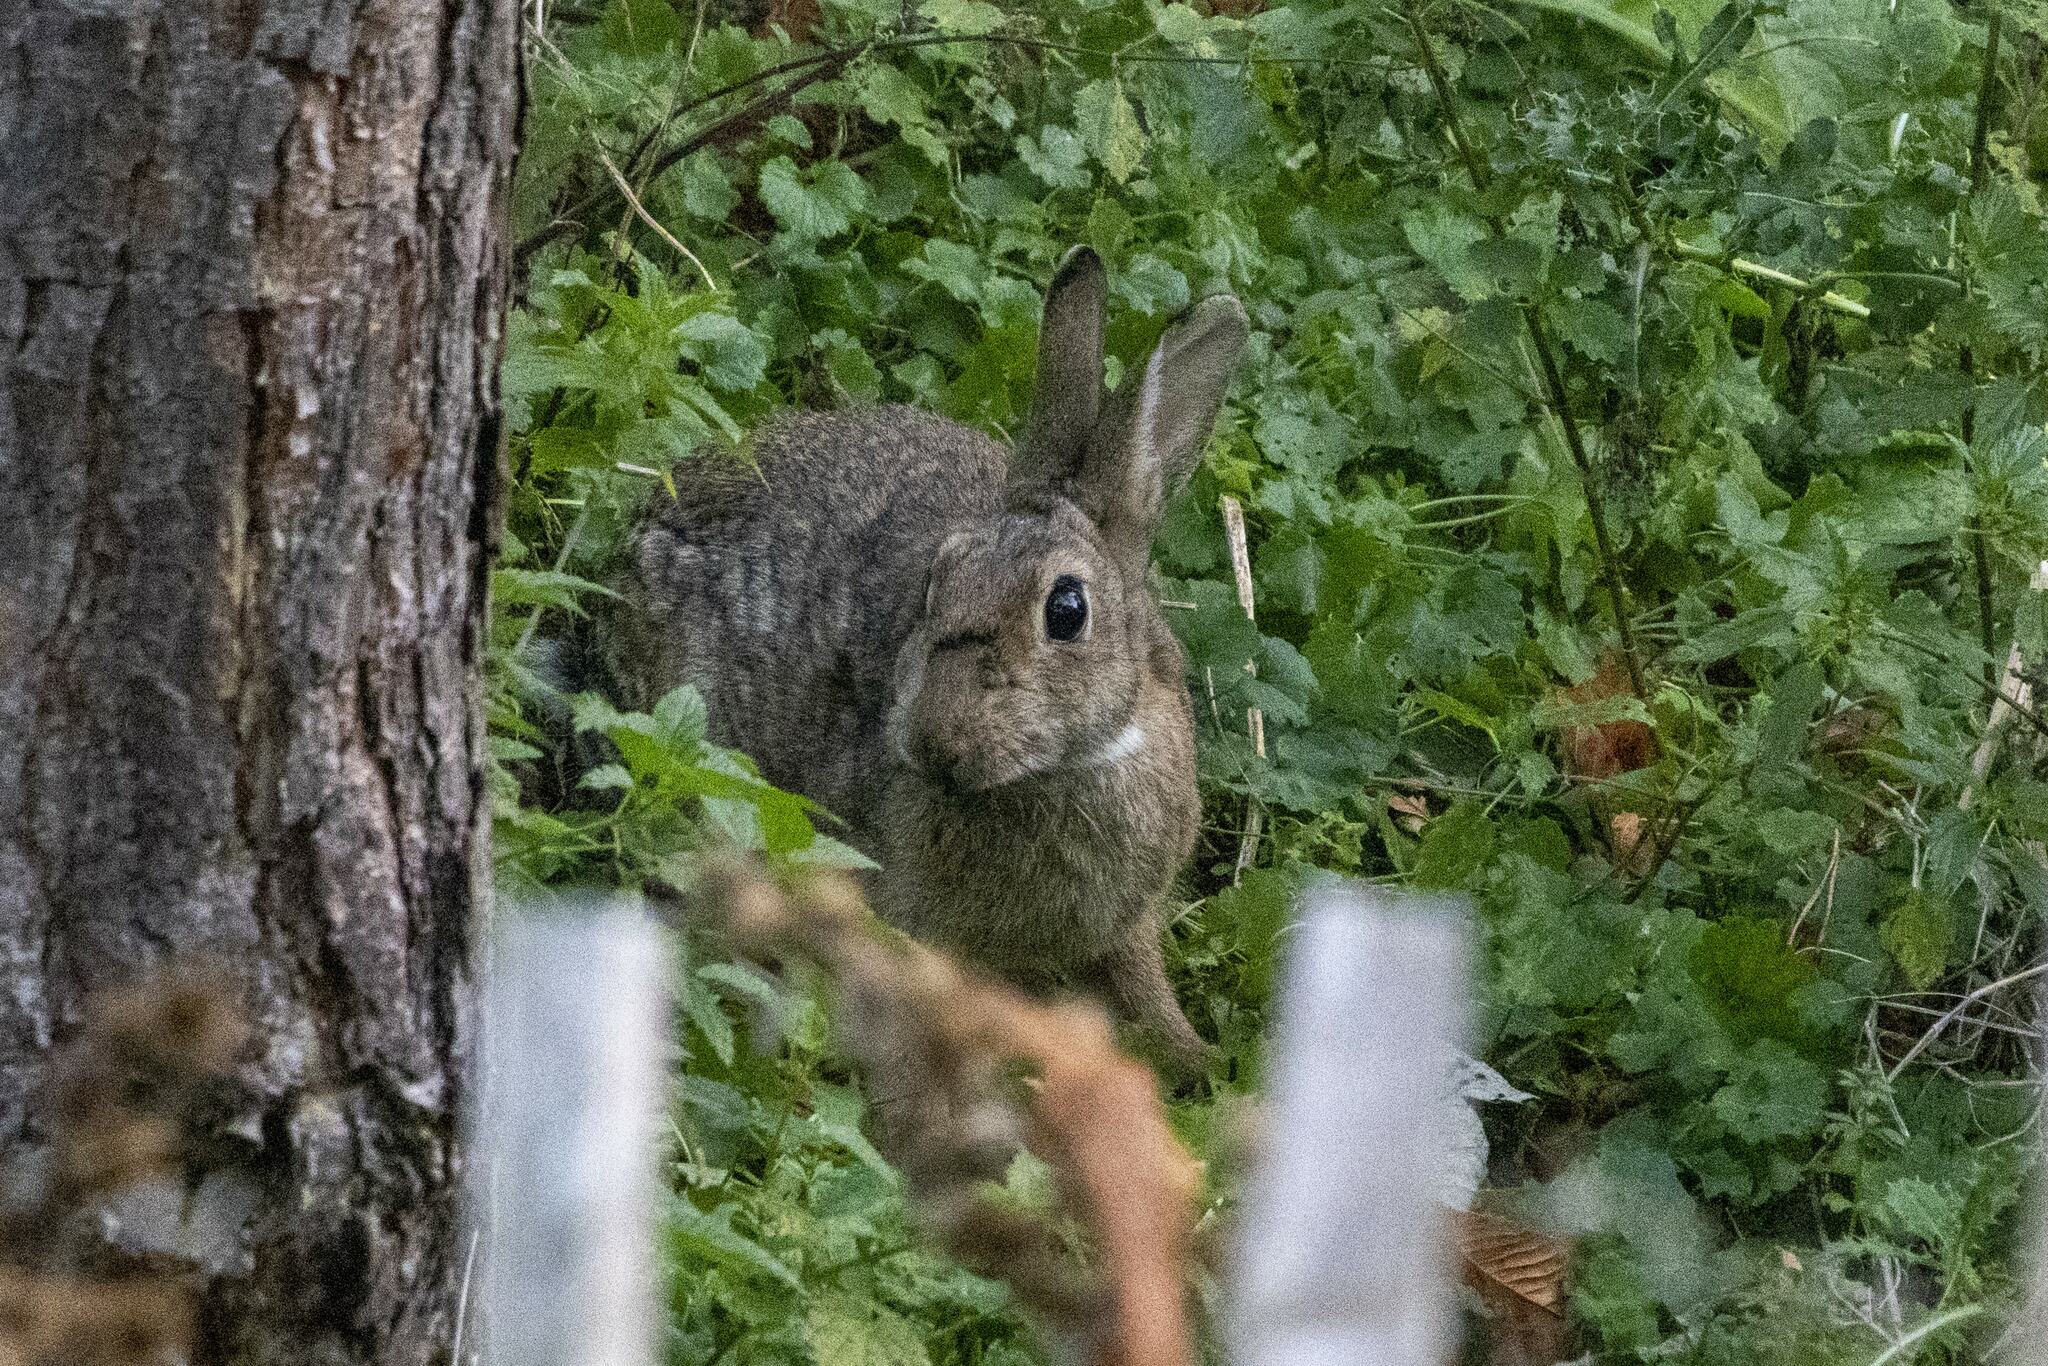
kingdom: Animalia
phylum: Chordata
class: Mammalia
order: Lagomorpha
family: Leporidae
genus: Oryctolagus
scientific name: Oryctolagus cuniculus
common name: European rabbit
